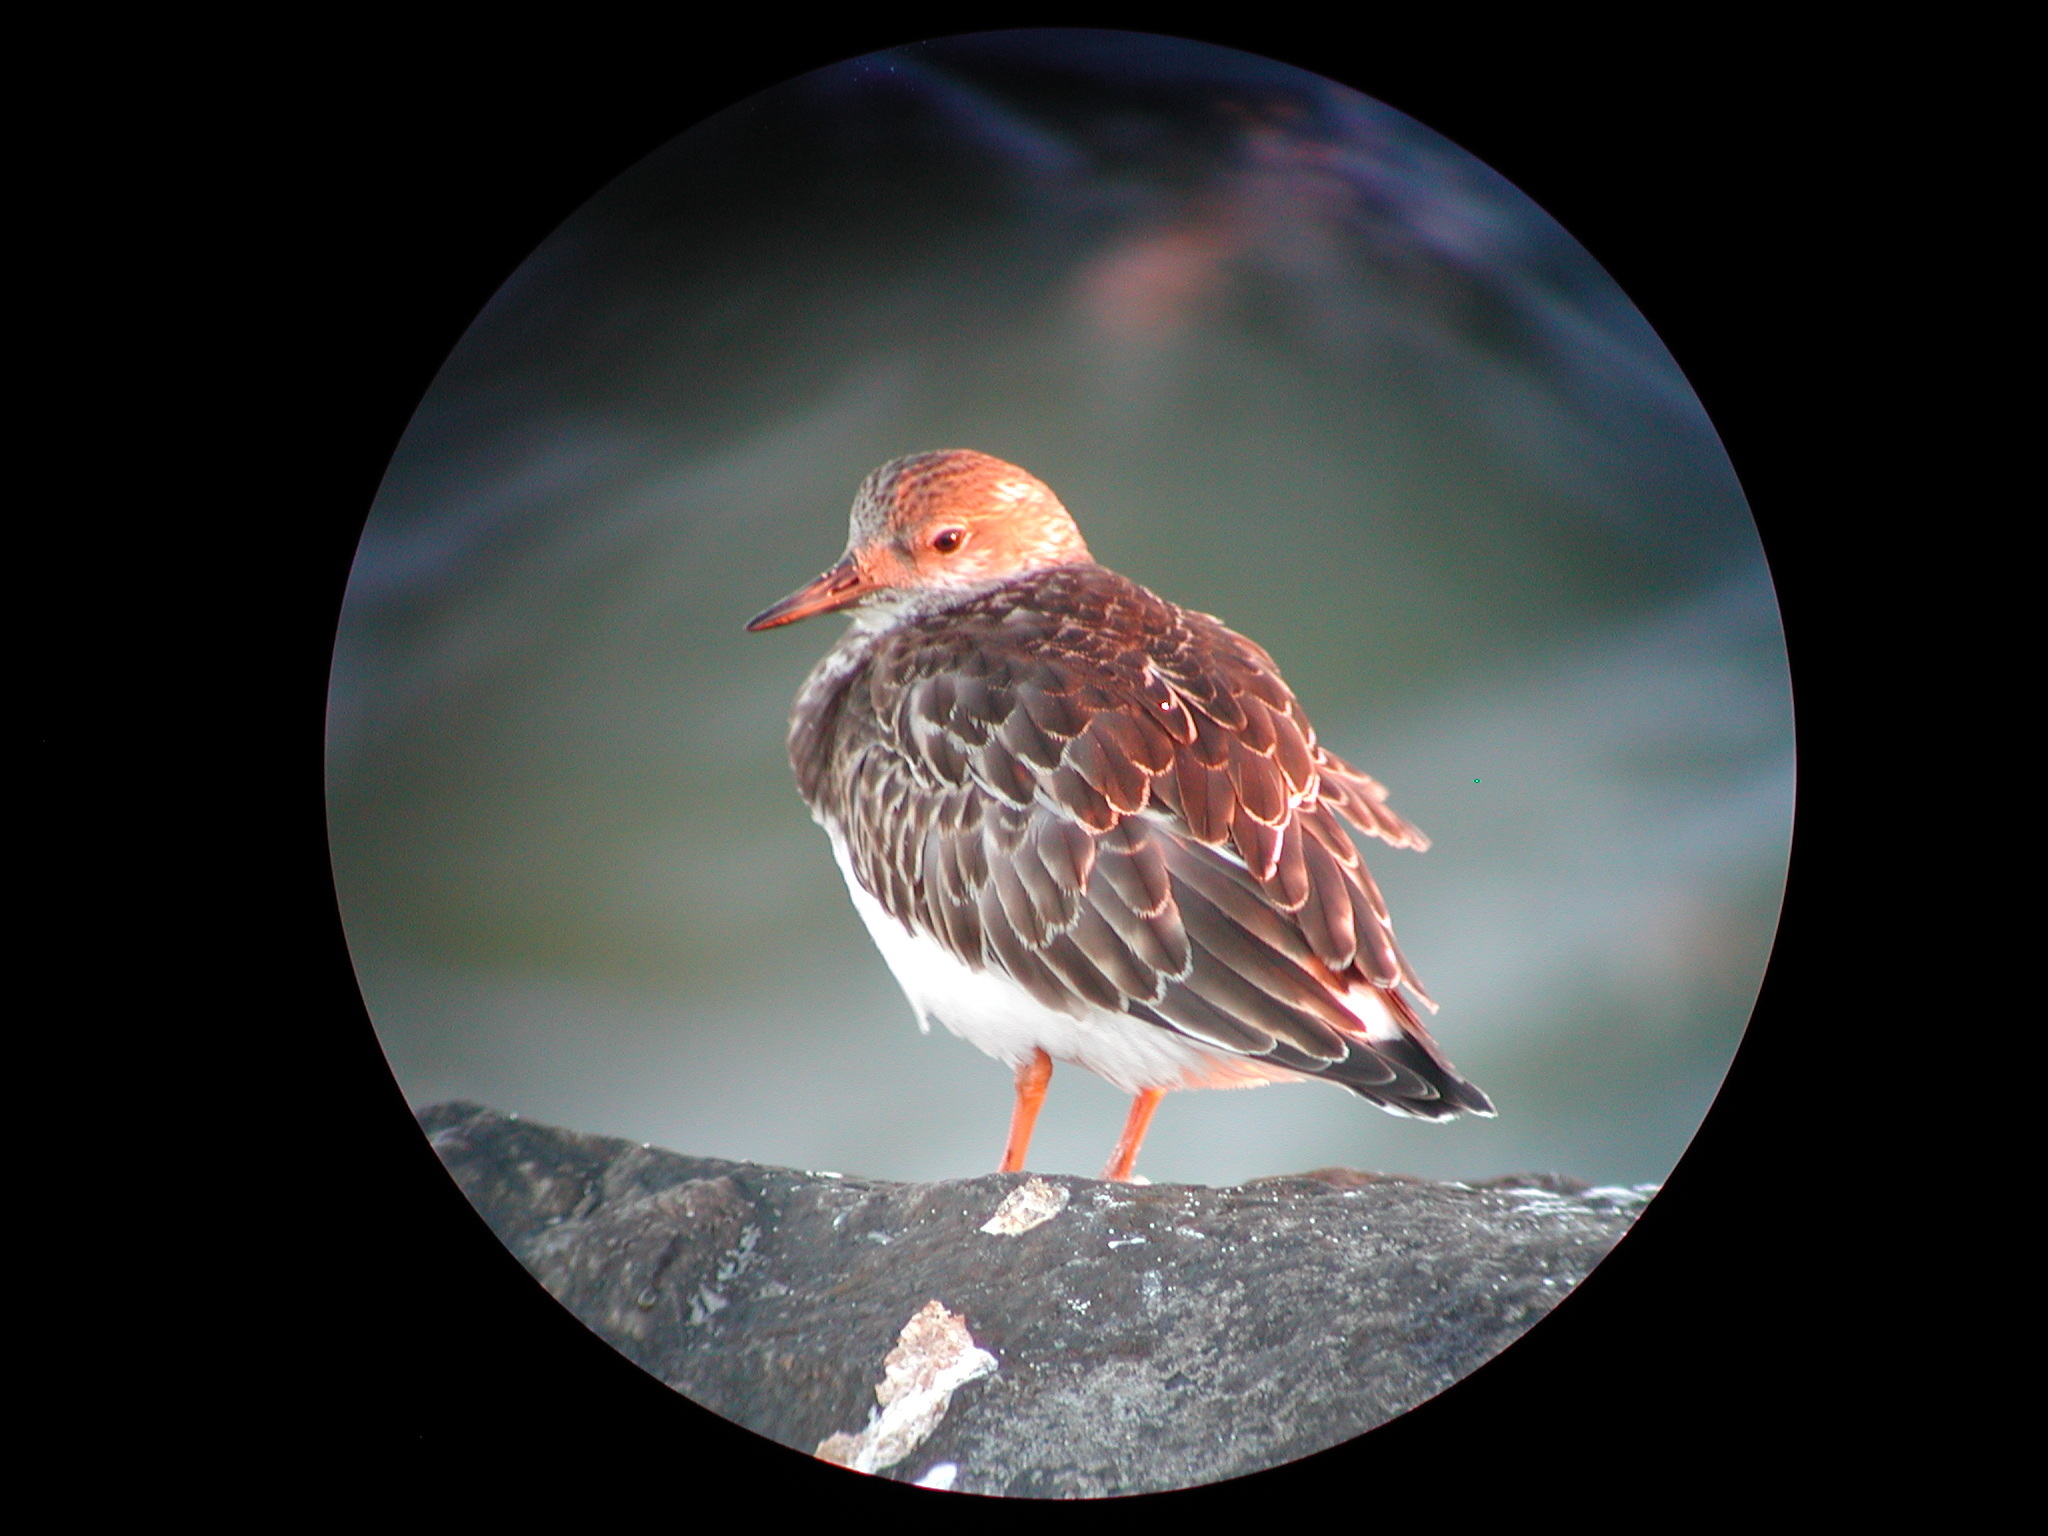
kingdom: Animalia
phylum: Chordata
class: Aves
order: Charadriiformes
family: Scolopacidae
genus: Arenaria
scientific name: Arenaria interpres
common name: Ruddy turnstone
